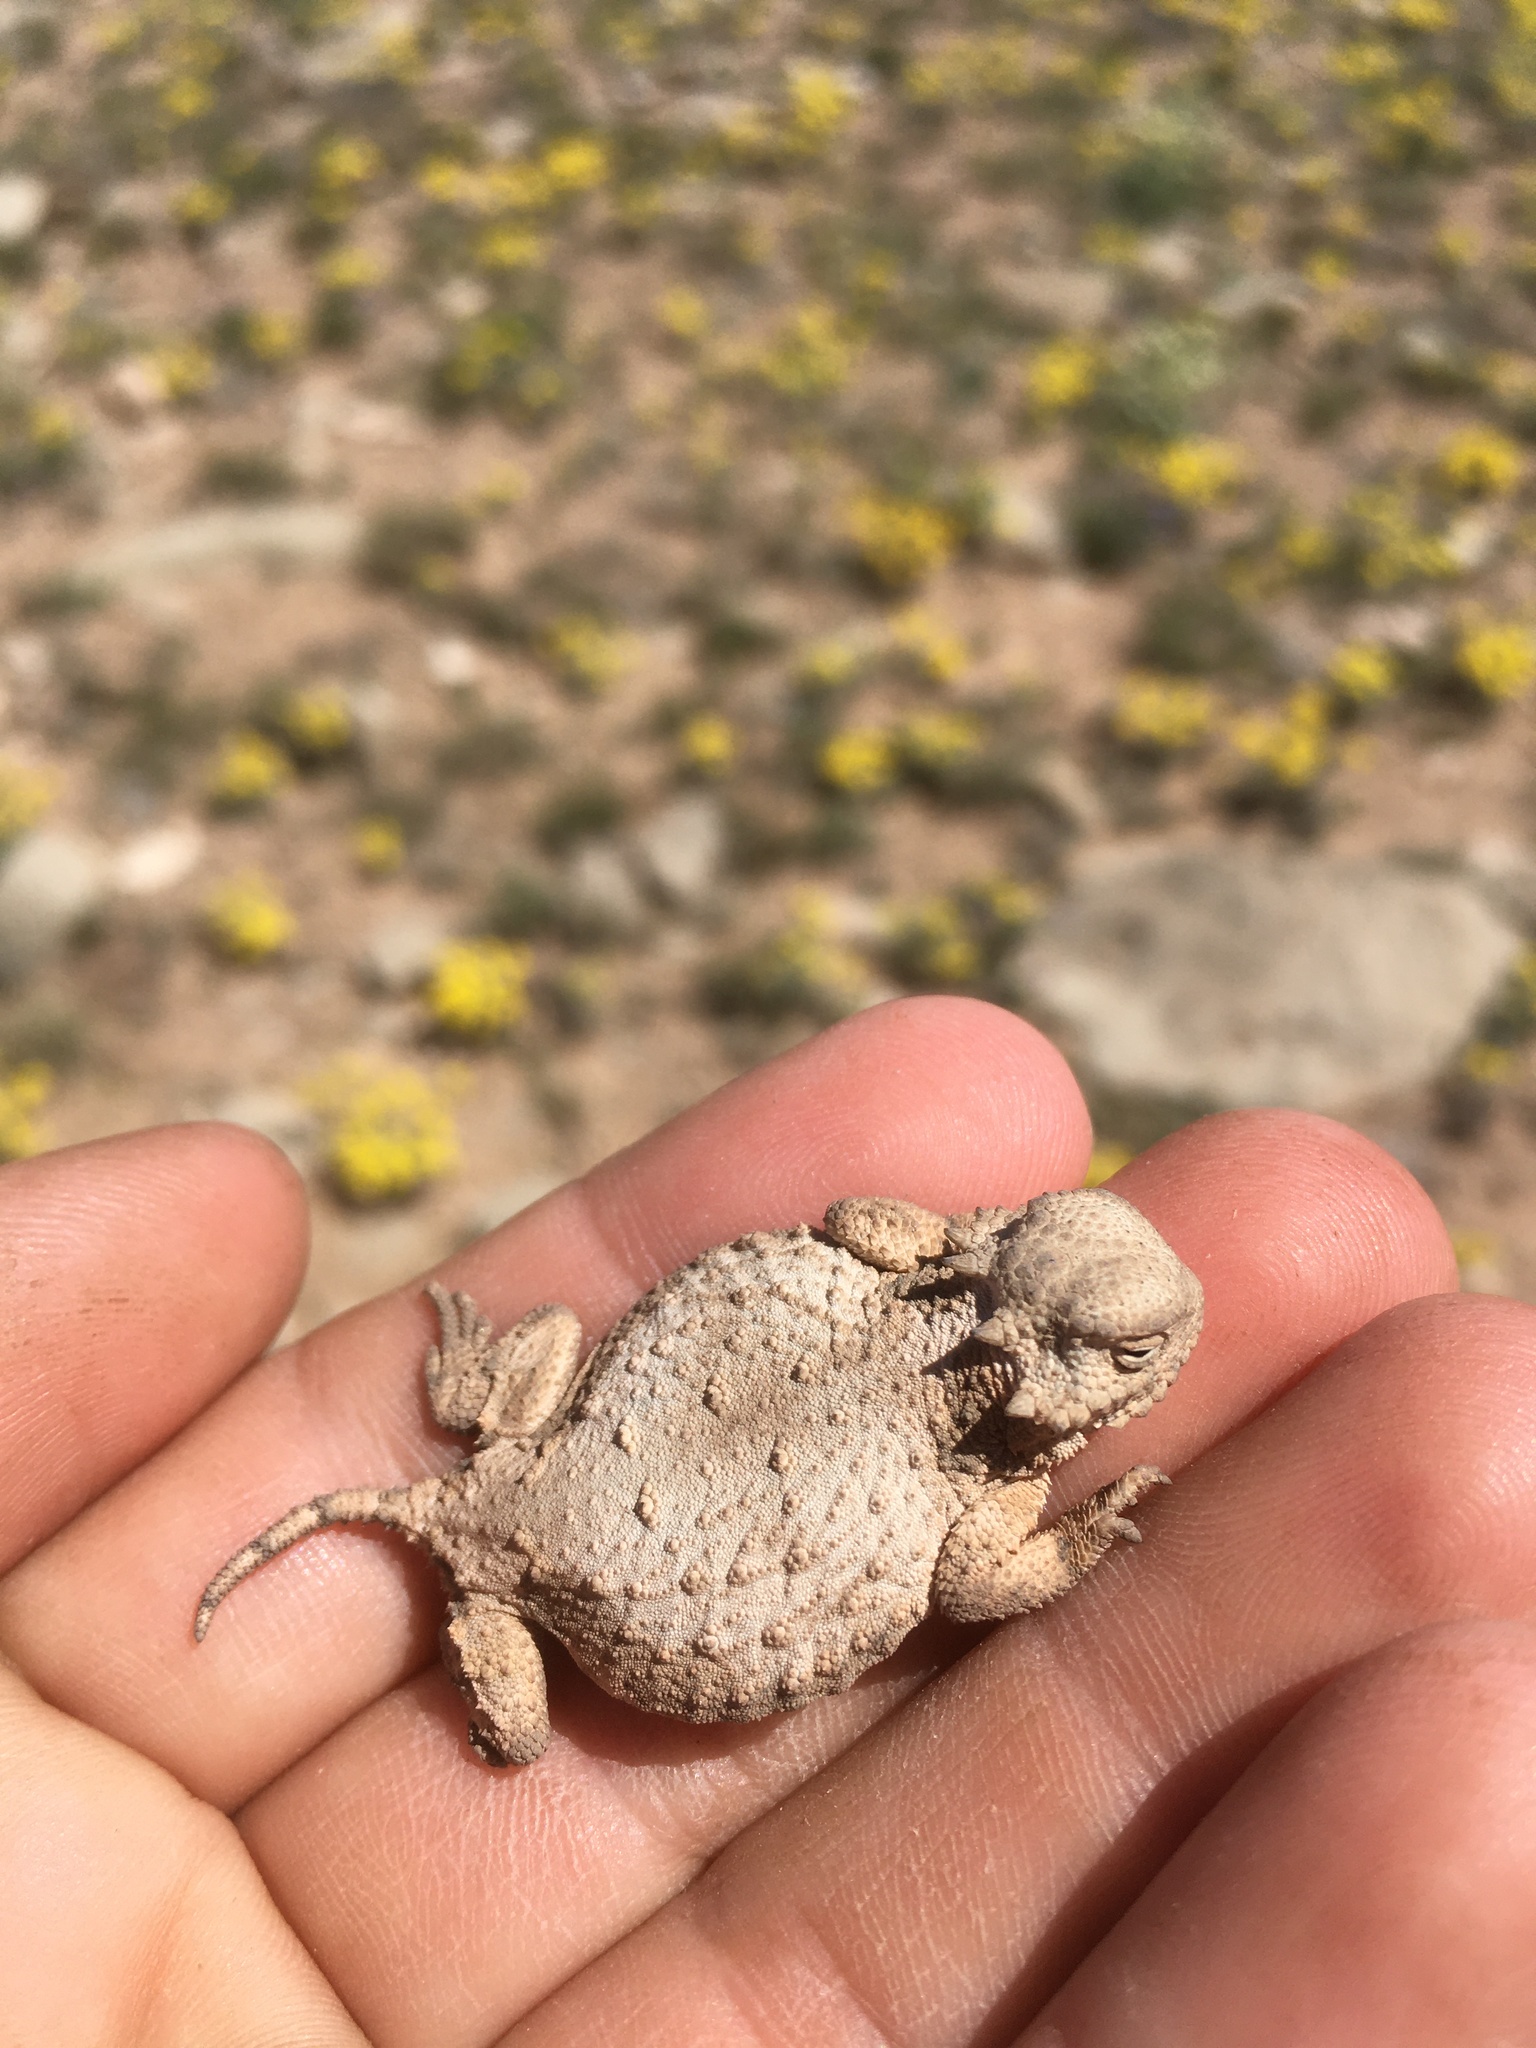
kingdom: Animalia
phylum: Chordata
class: Squamata
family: Phrynosomatidae
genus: Phrynosoma
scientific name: Phrynosoma modestum
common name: Roundtail horned lizard
